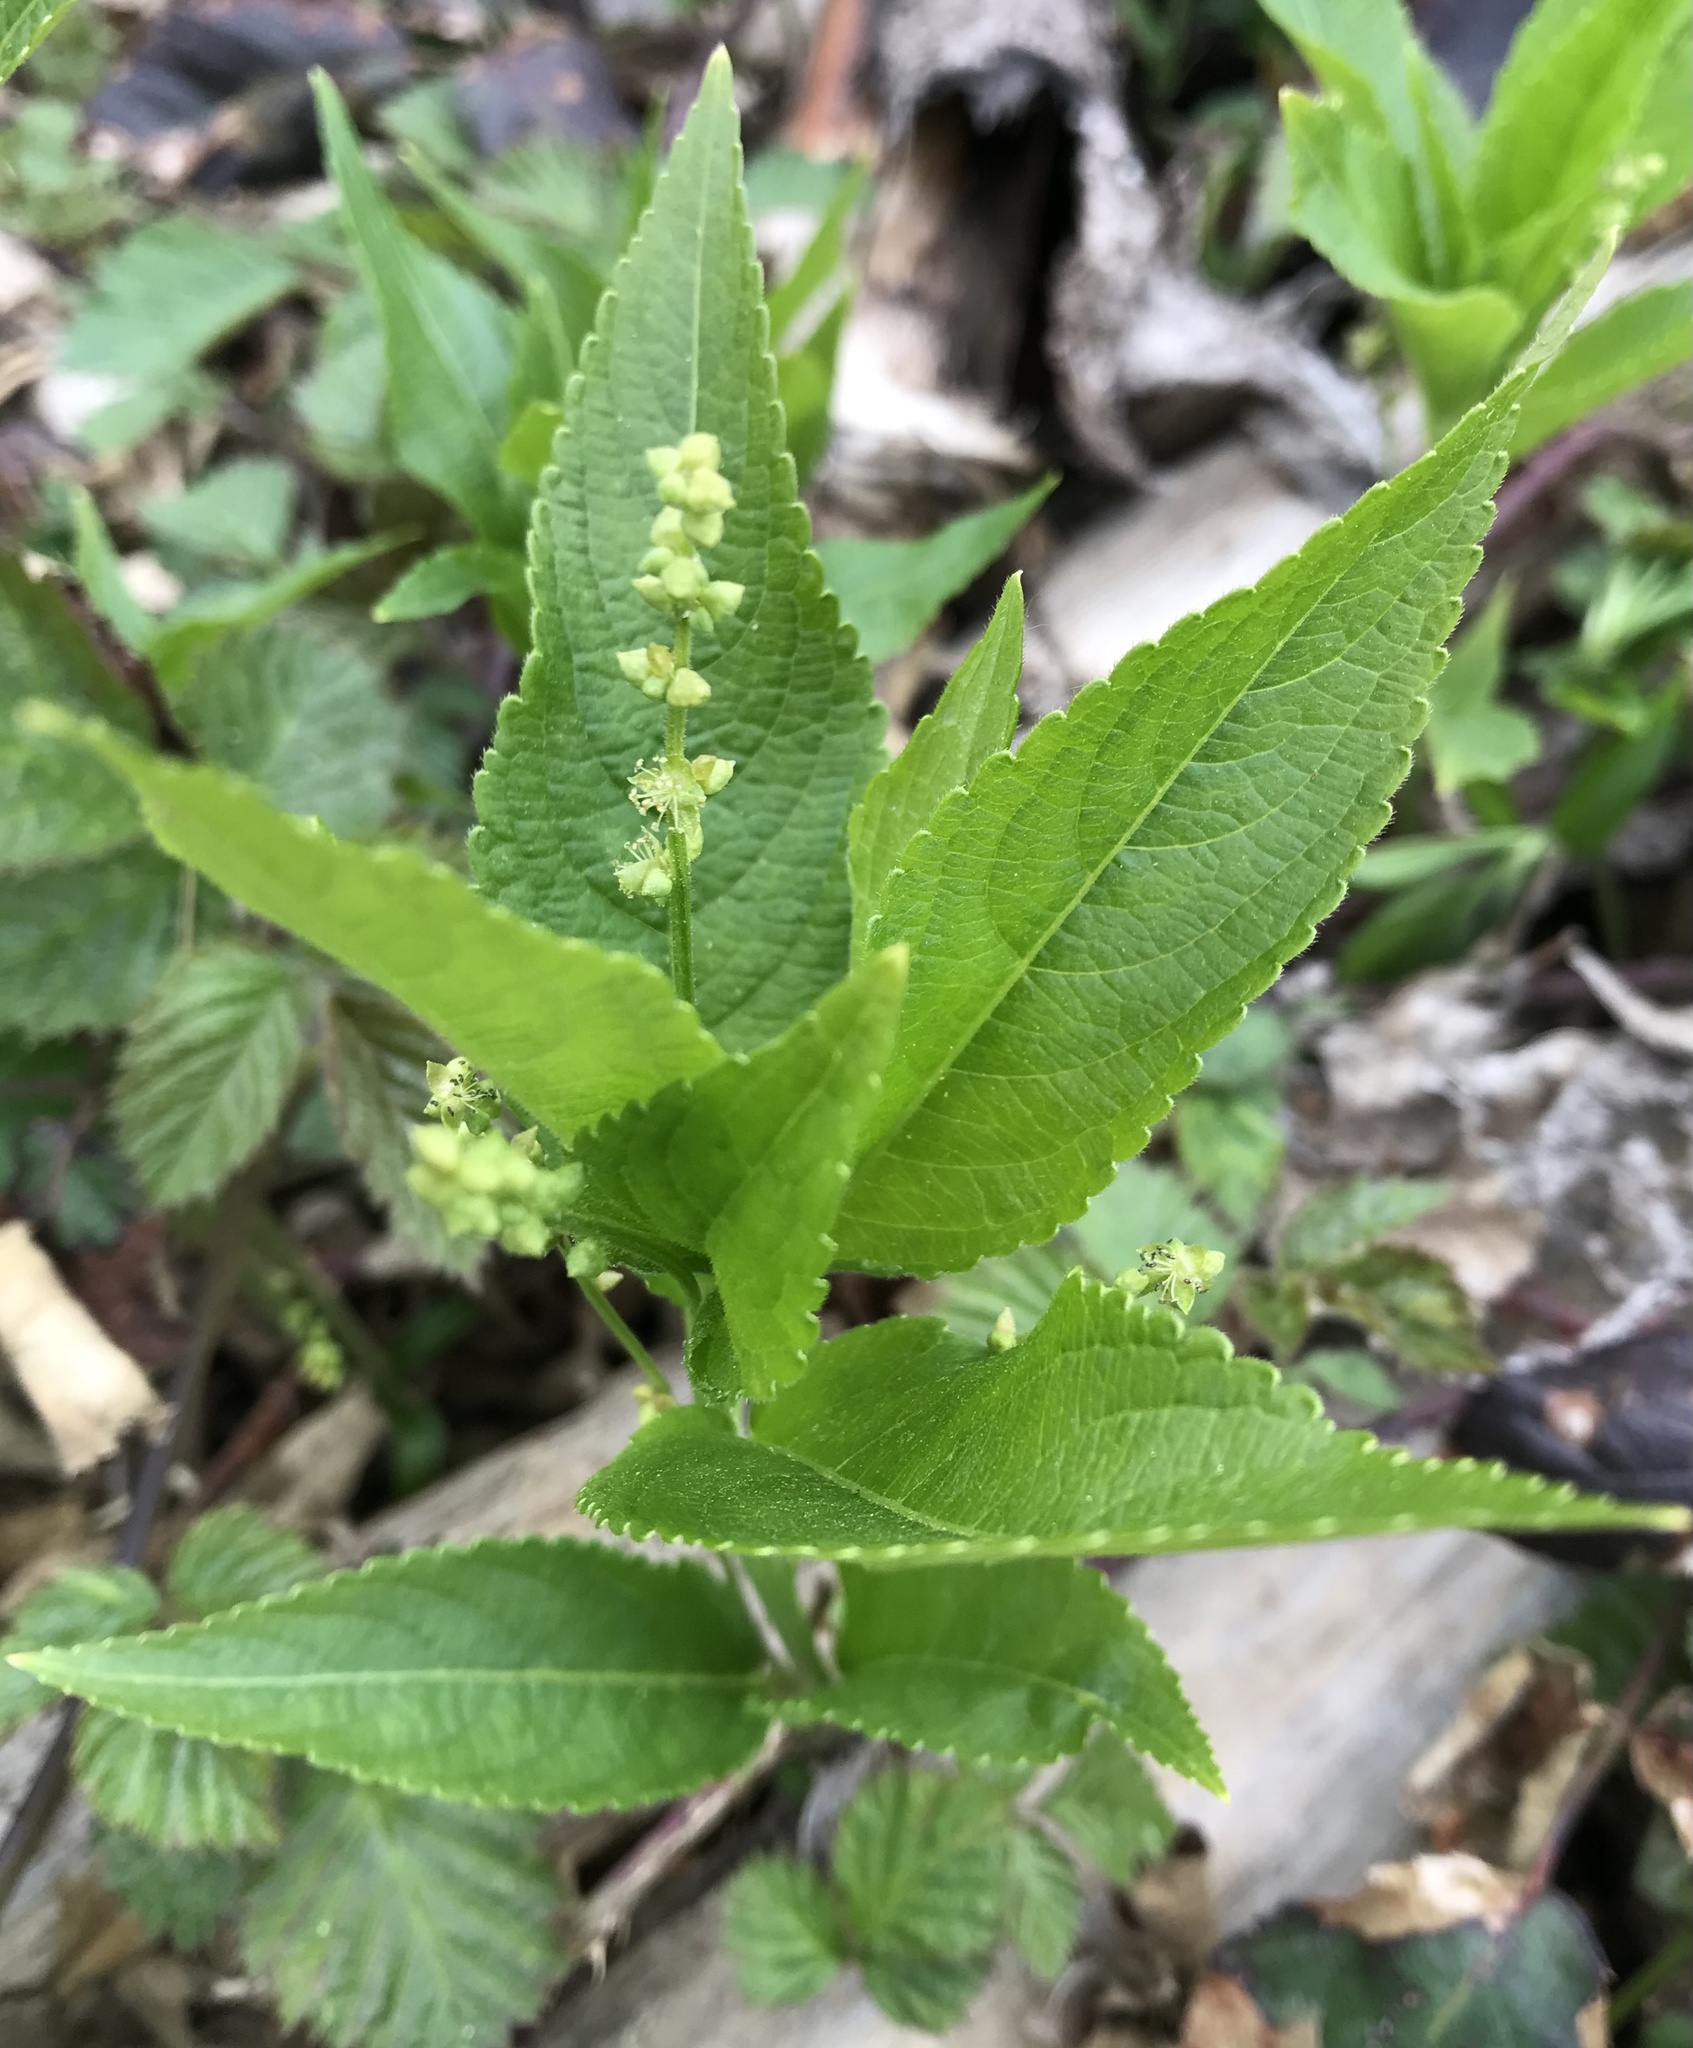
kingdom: Plantae
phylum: Tracheophyta
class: Magnoliopsida
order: Malpighiales
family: Euphorbiaceae
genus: Mercurialis
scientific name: Mercurialis perennis
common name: Dog mercury
